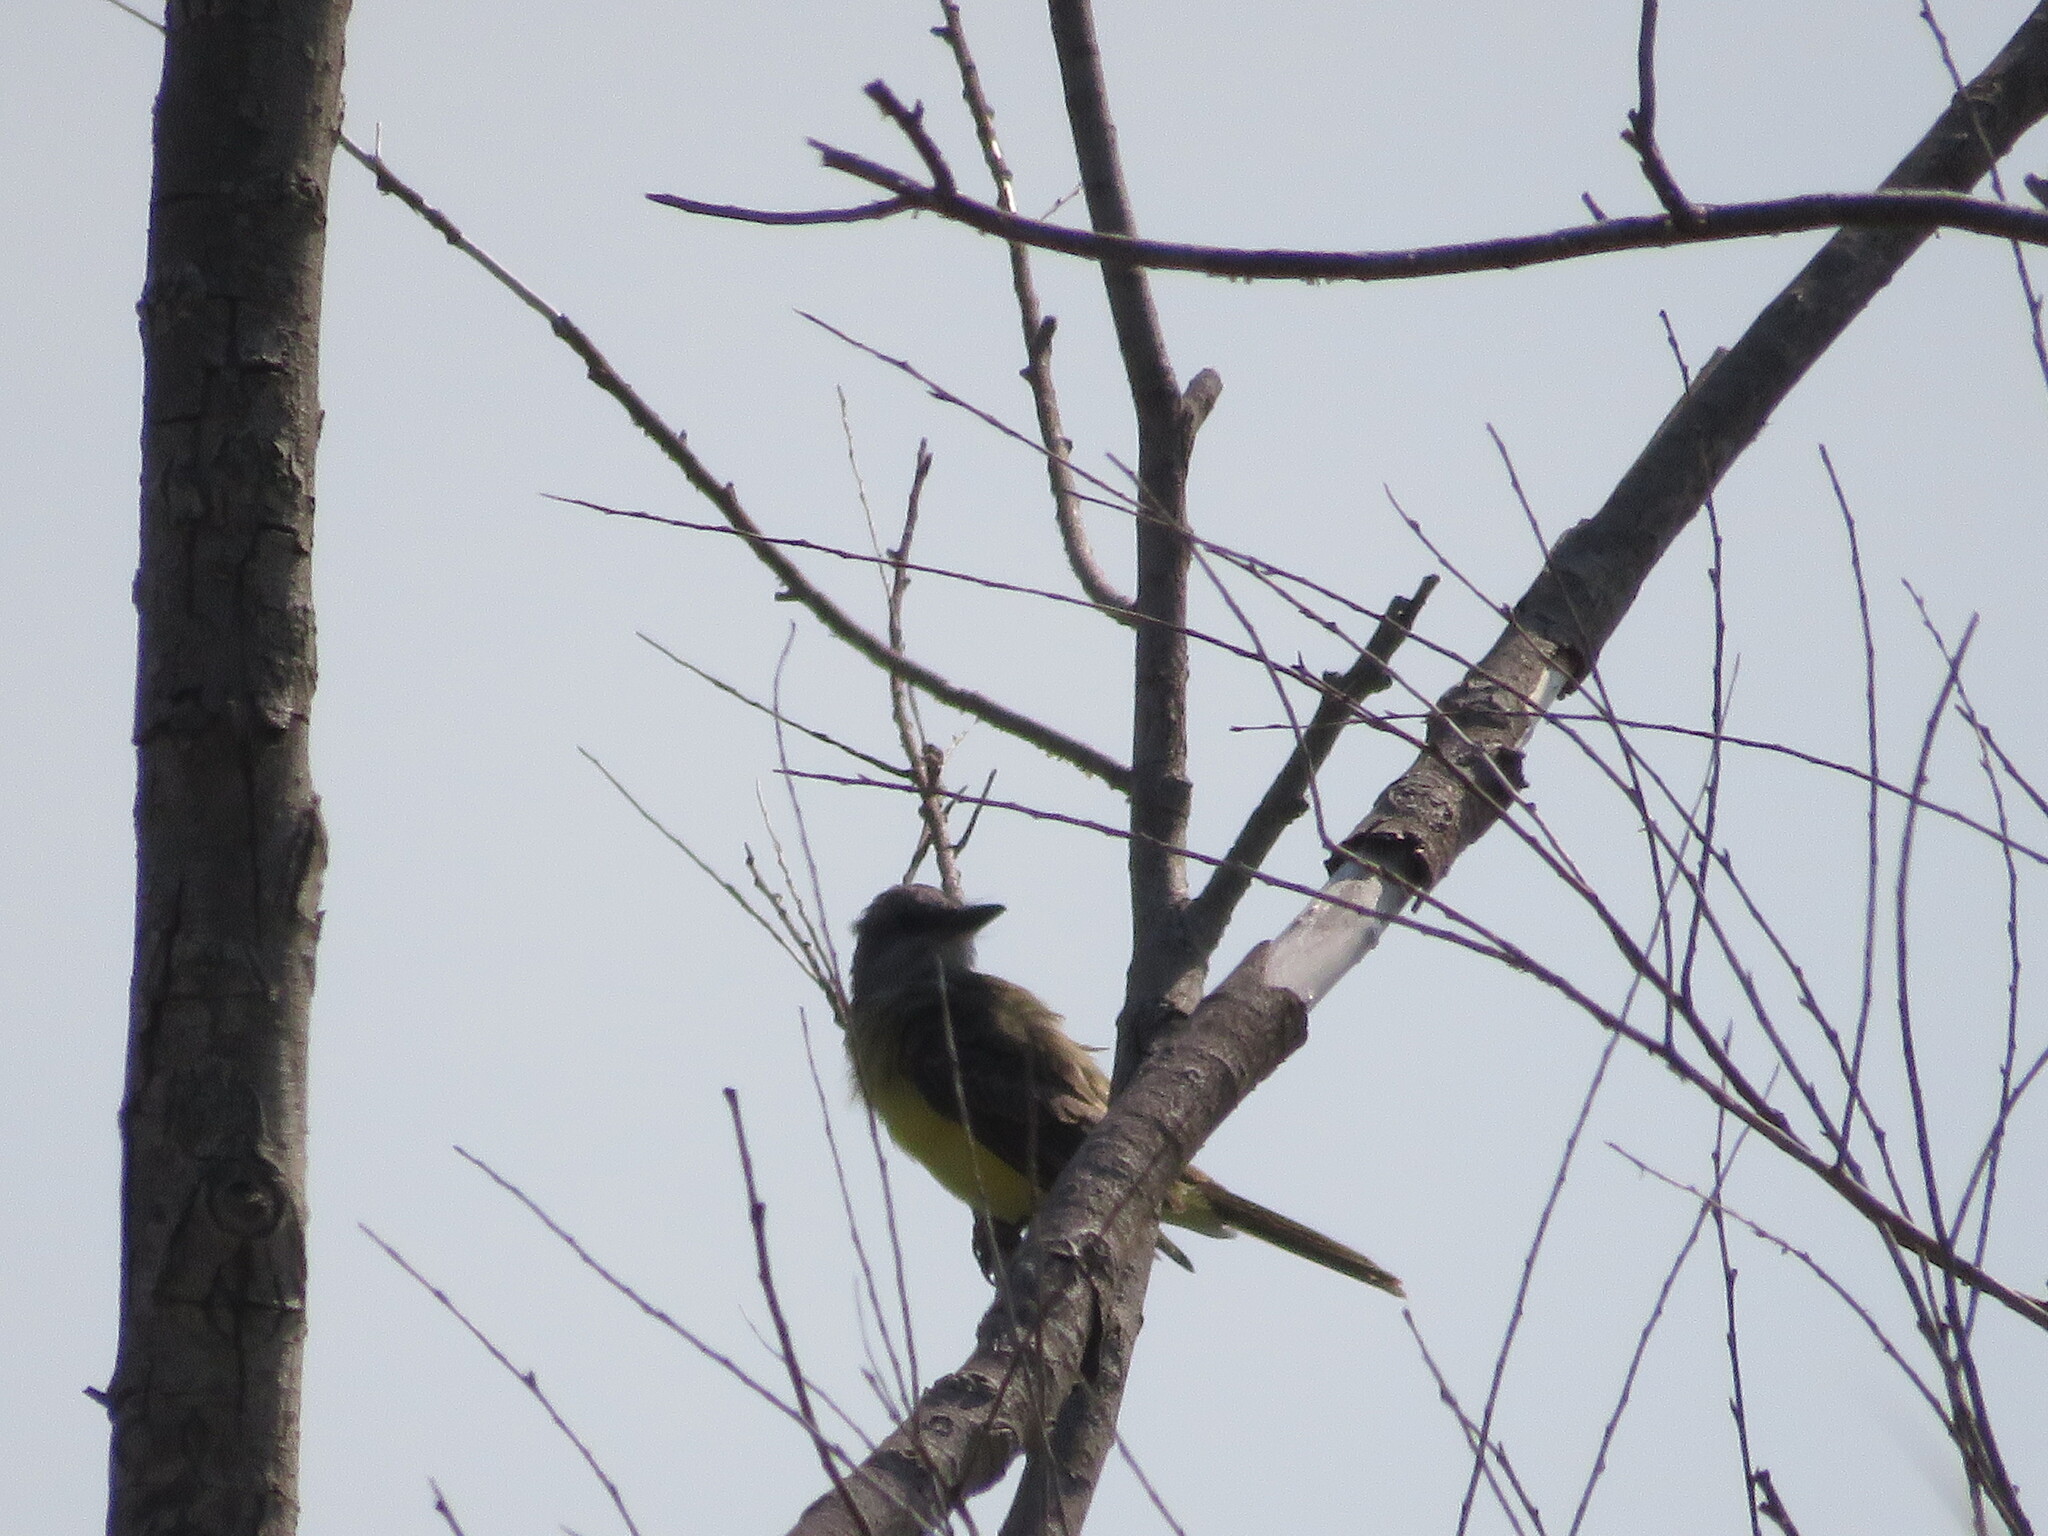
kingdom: Animalia
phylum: Chordata
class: Aves
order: Passeriformes
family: Tyrannidae
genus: Tyrannus
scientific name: Tyrannus melancholicus
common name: Tropical kingbird
